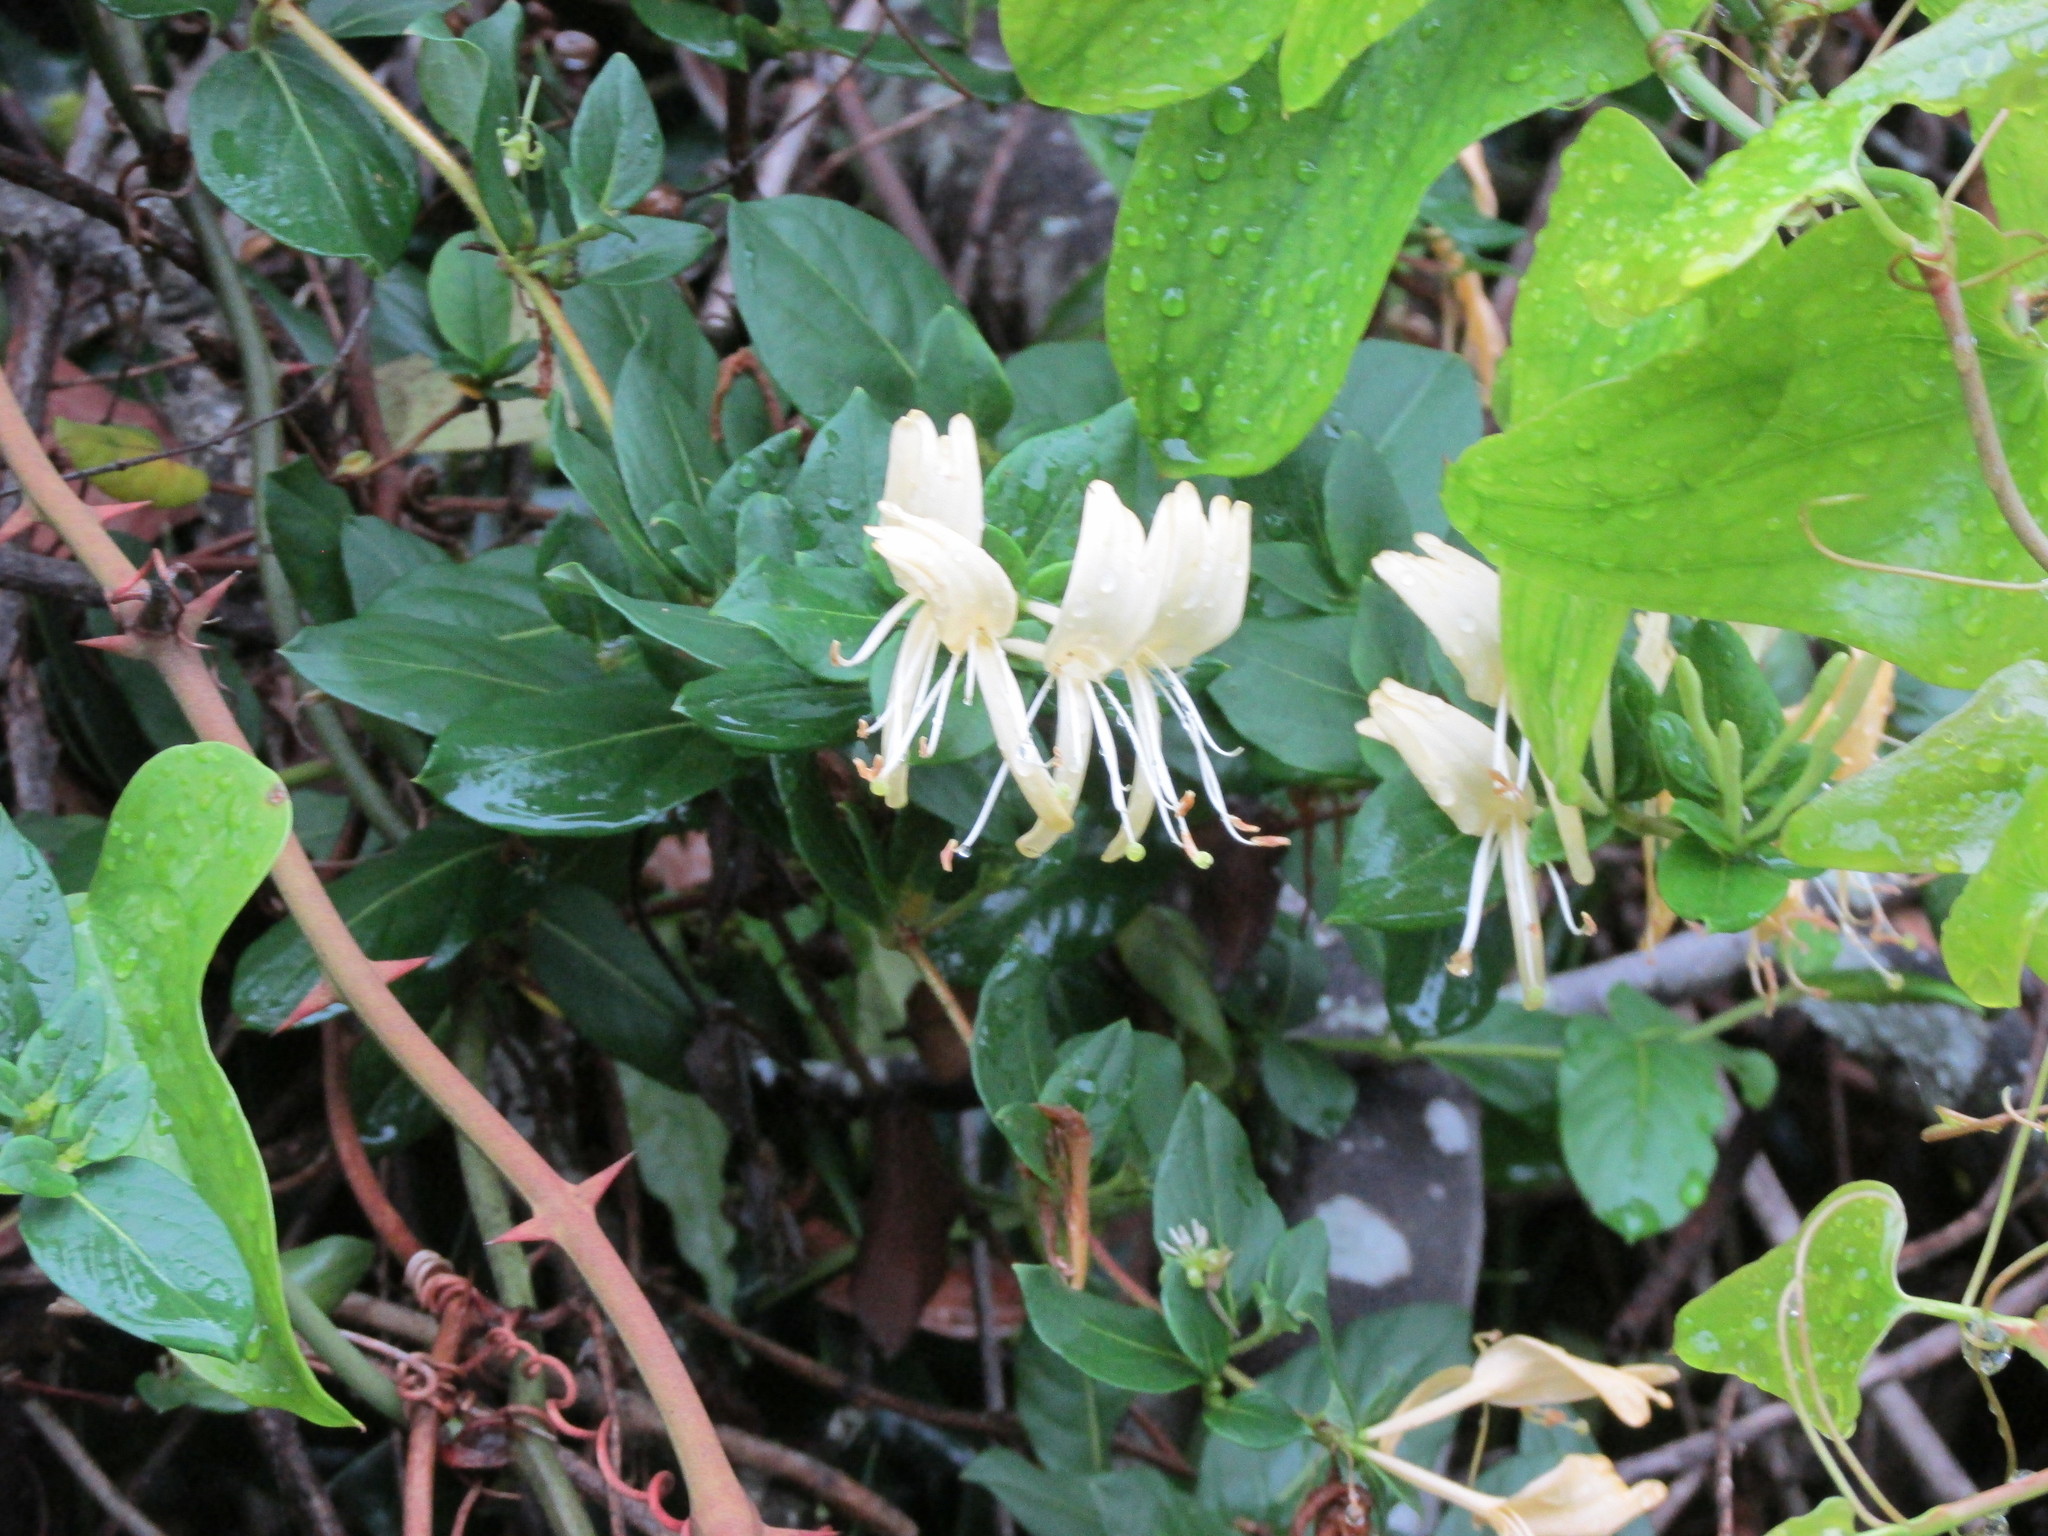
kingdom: Plantae
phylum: Tracheophyta
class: Magnoliopsida
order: Dipsacales
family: Caprifoliaceae
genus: Lonicera
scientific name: Lonicera japonica
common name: Japanese honeysuckle
